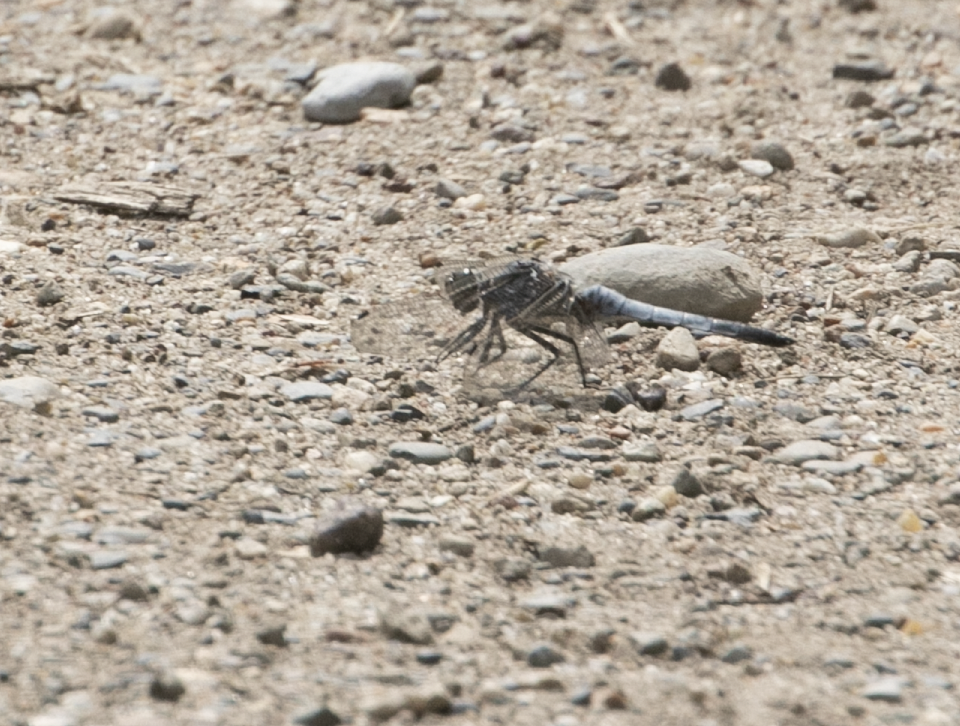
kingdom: Animalia
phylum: Arthropoda
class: Insecta
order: Odonata
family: Libellulidae
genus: Orthetrum
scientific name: Orthetrum cancellatum
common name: Black-tailed skimmer
